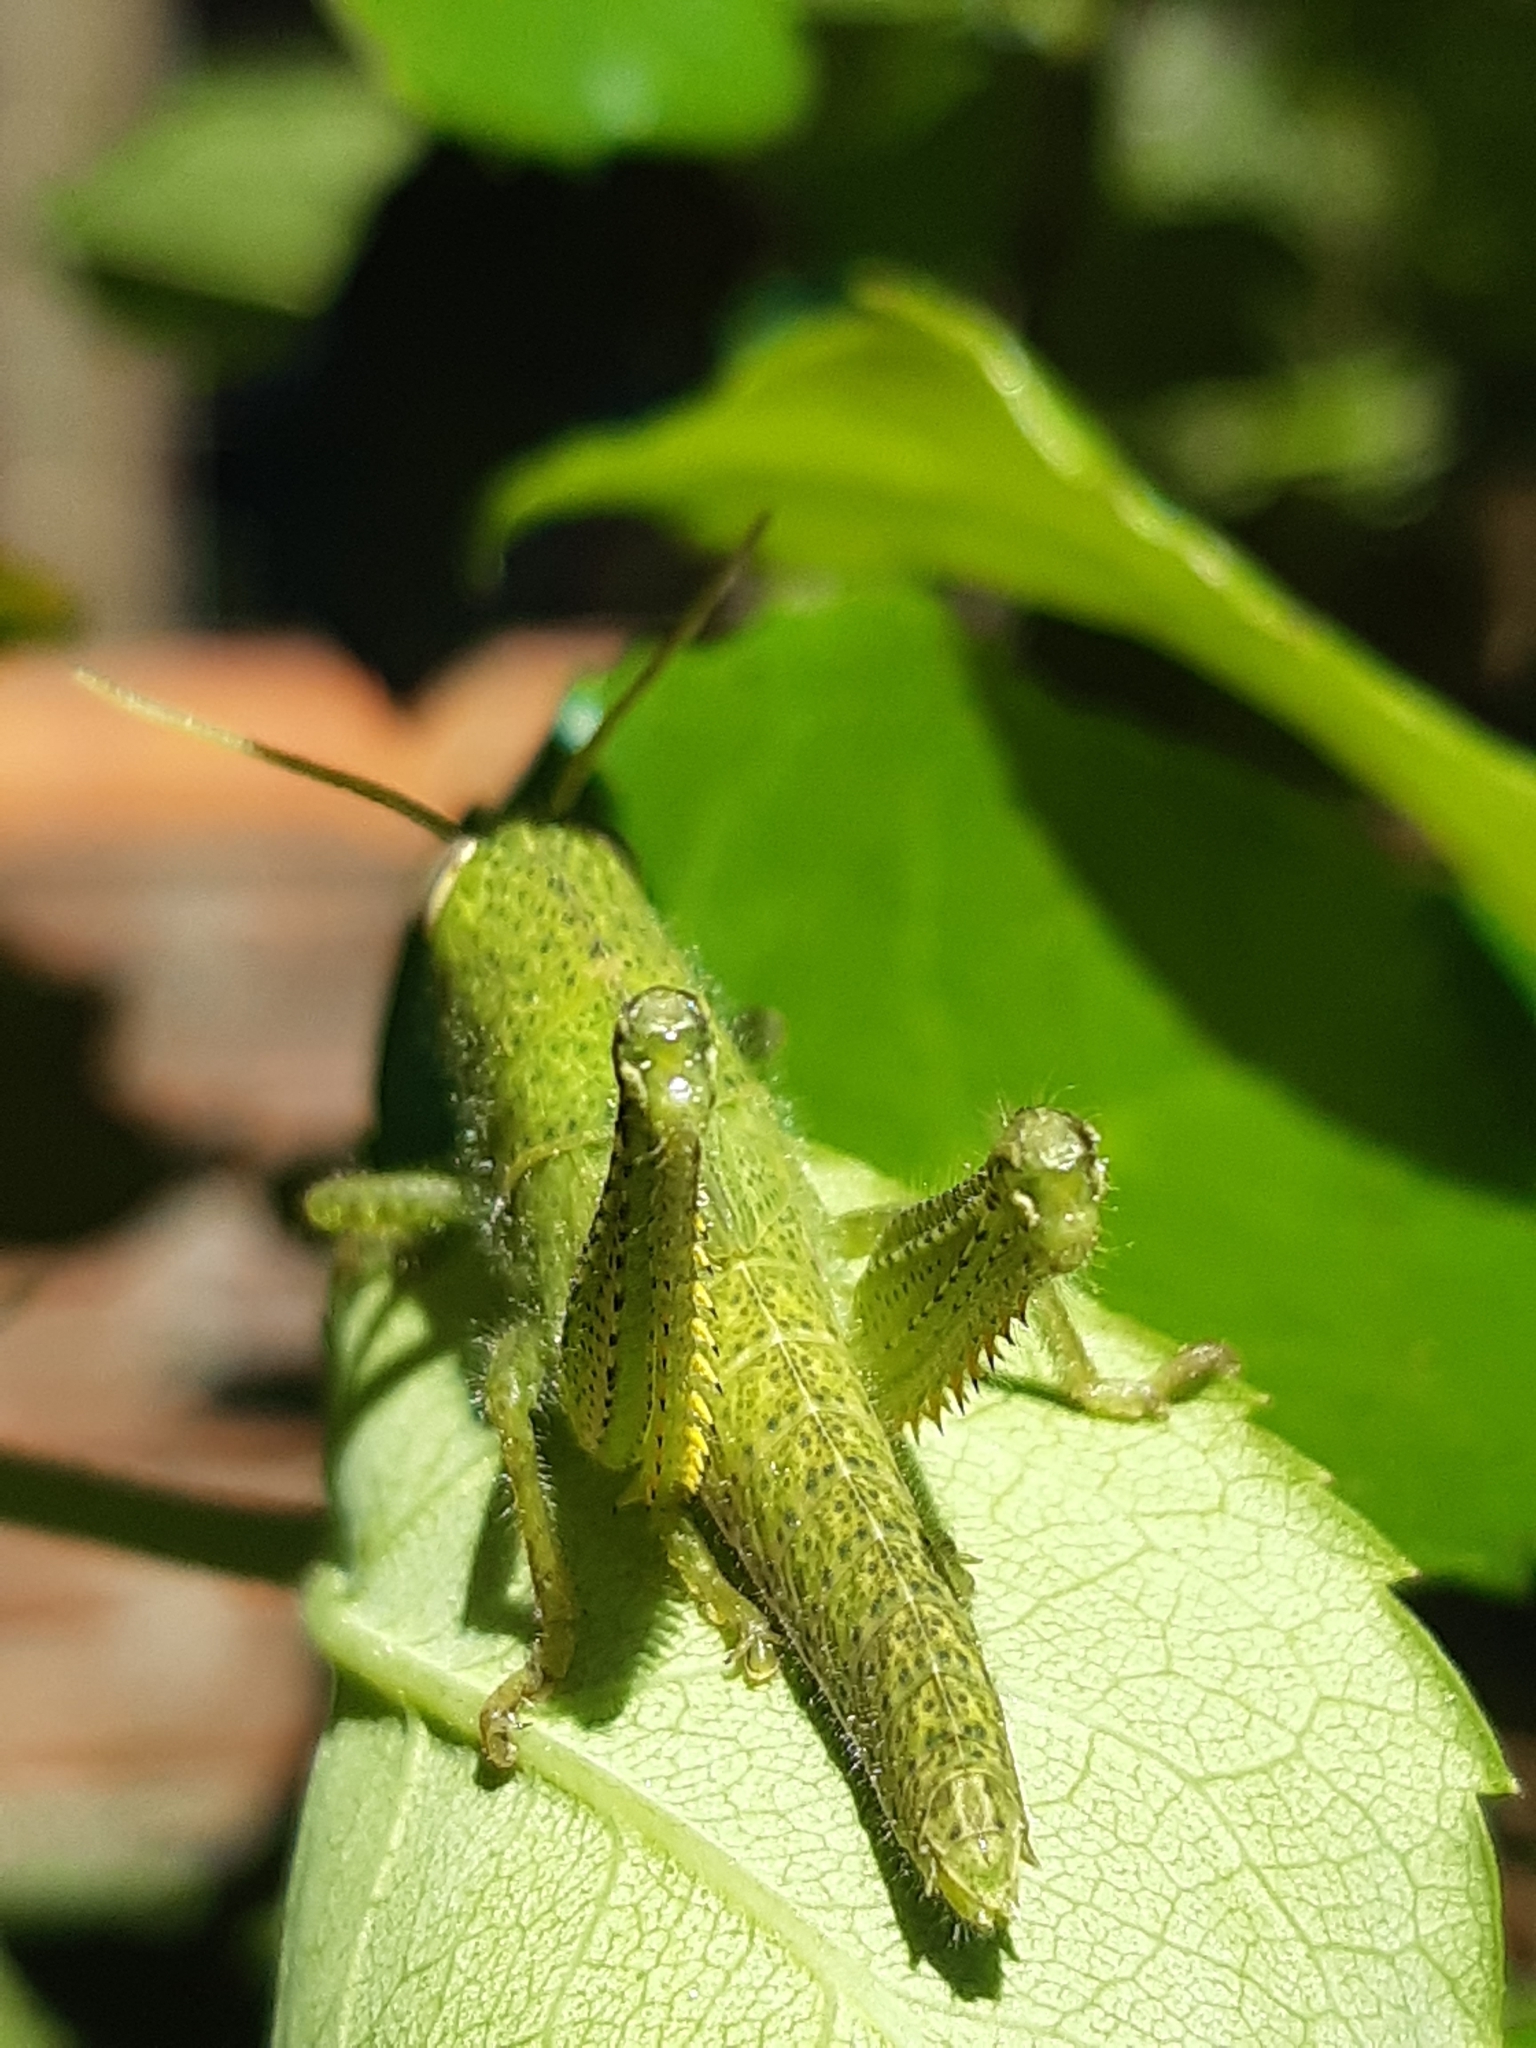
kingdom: Animalia
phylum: Arthropoda
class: Insecta
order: Orthoptera
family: Acrididae
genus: Schistocerca
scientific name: Schistocerca flavofasciata
